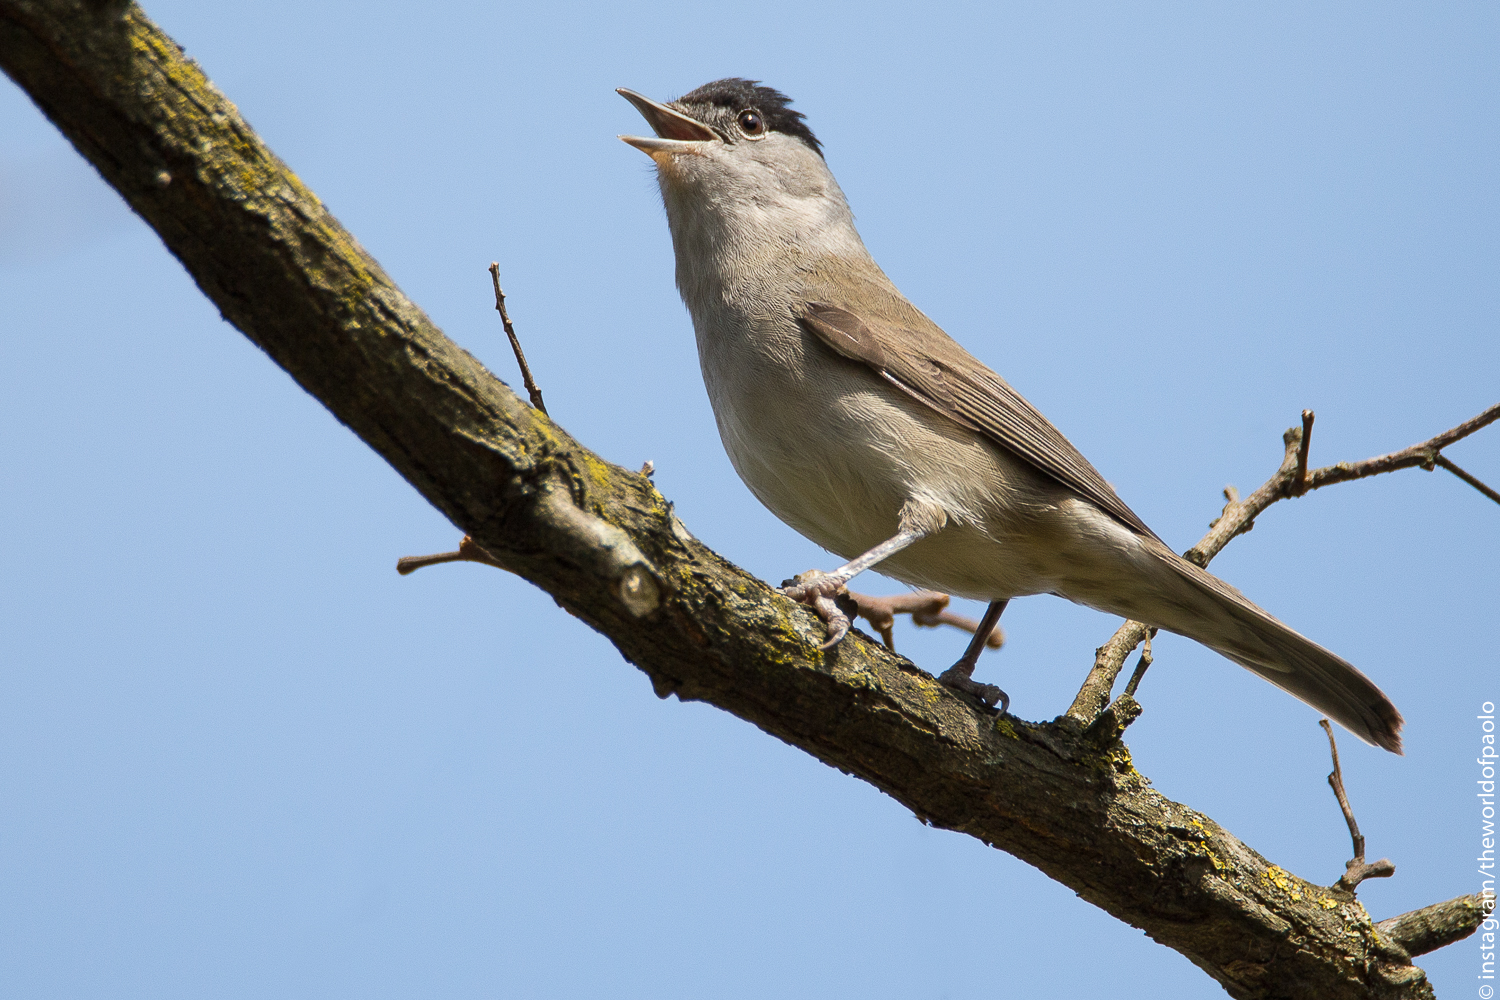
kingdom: Animalia
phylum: Chordata
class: Aves
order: Passeriformes
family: Sylviidae
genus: Sylvia
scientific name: Sylvia atricapilla
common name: Eurasian blackcap
